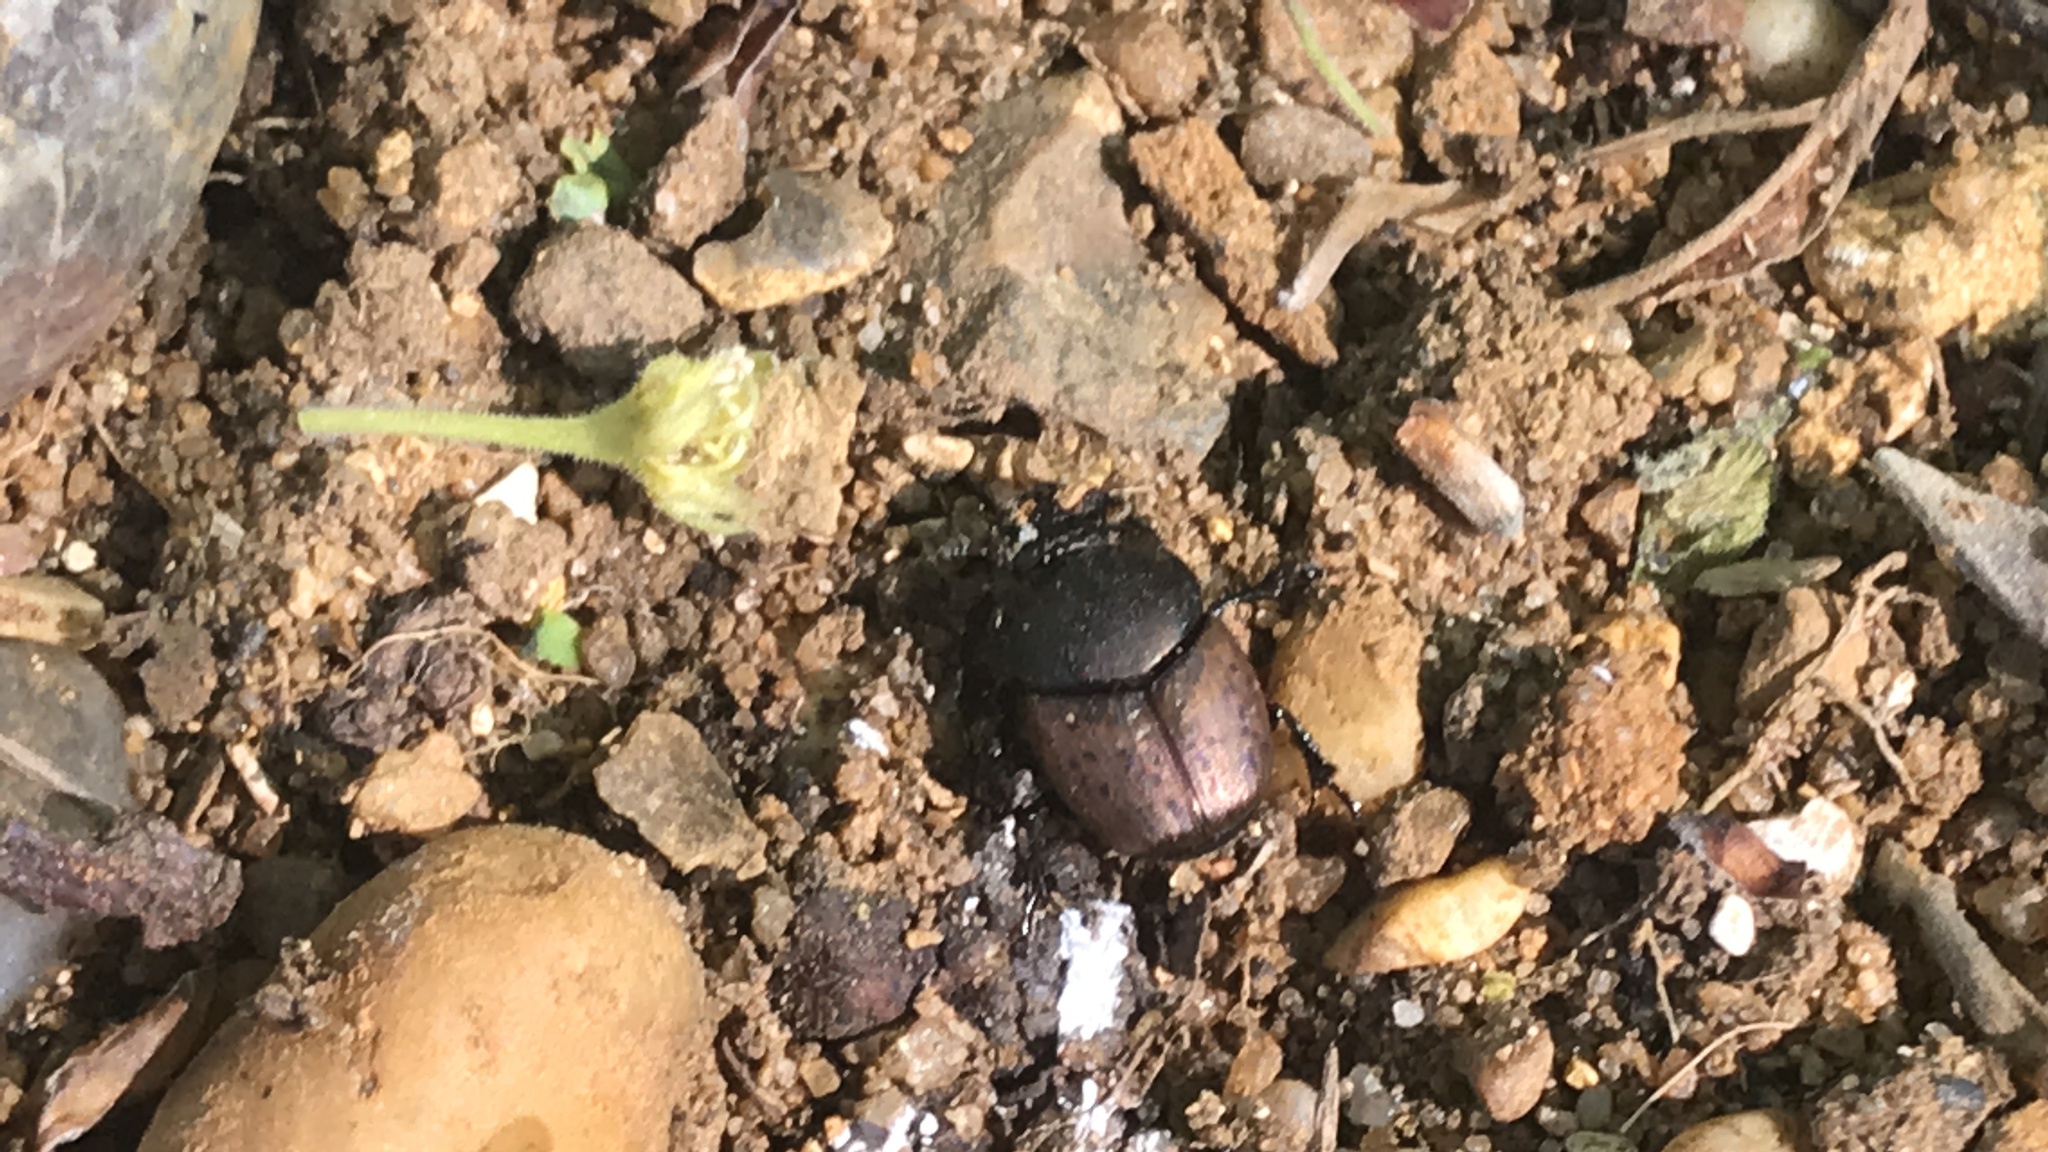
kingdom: Animalia
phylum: Arthropoda
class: Insecta
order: Coleoptera
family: Scarabaeidae
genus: Onthophagus
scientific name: Onthophagus coenobita
